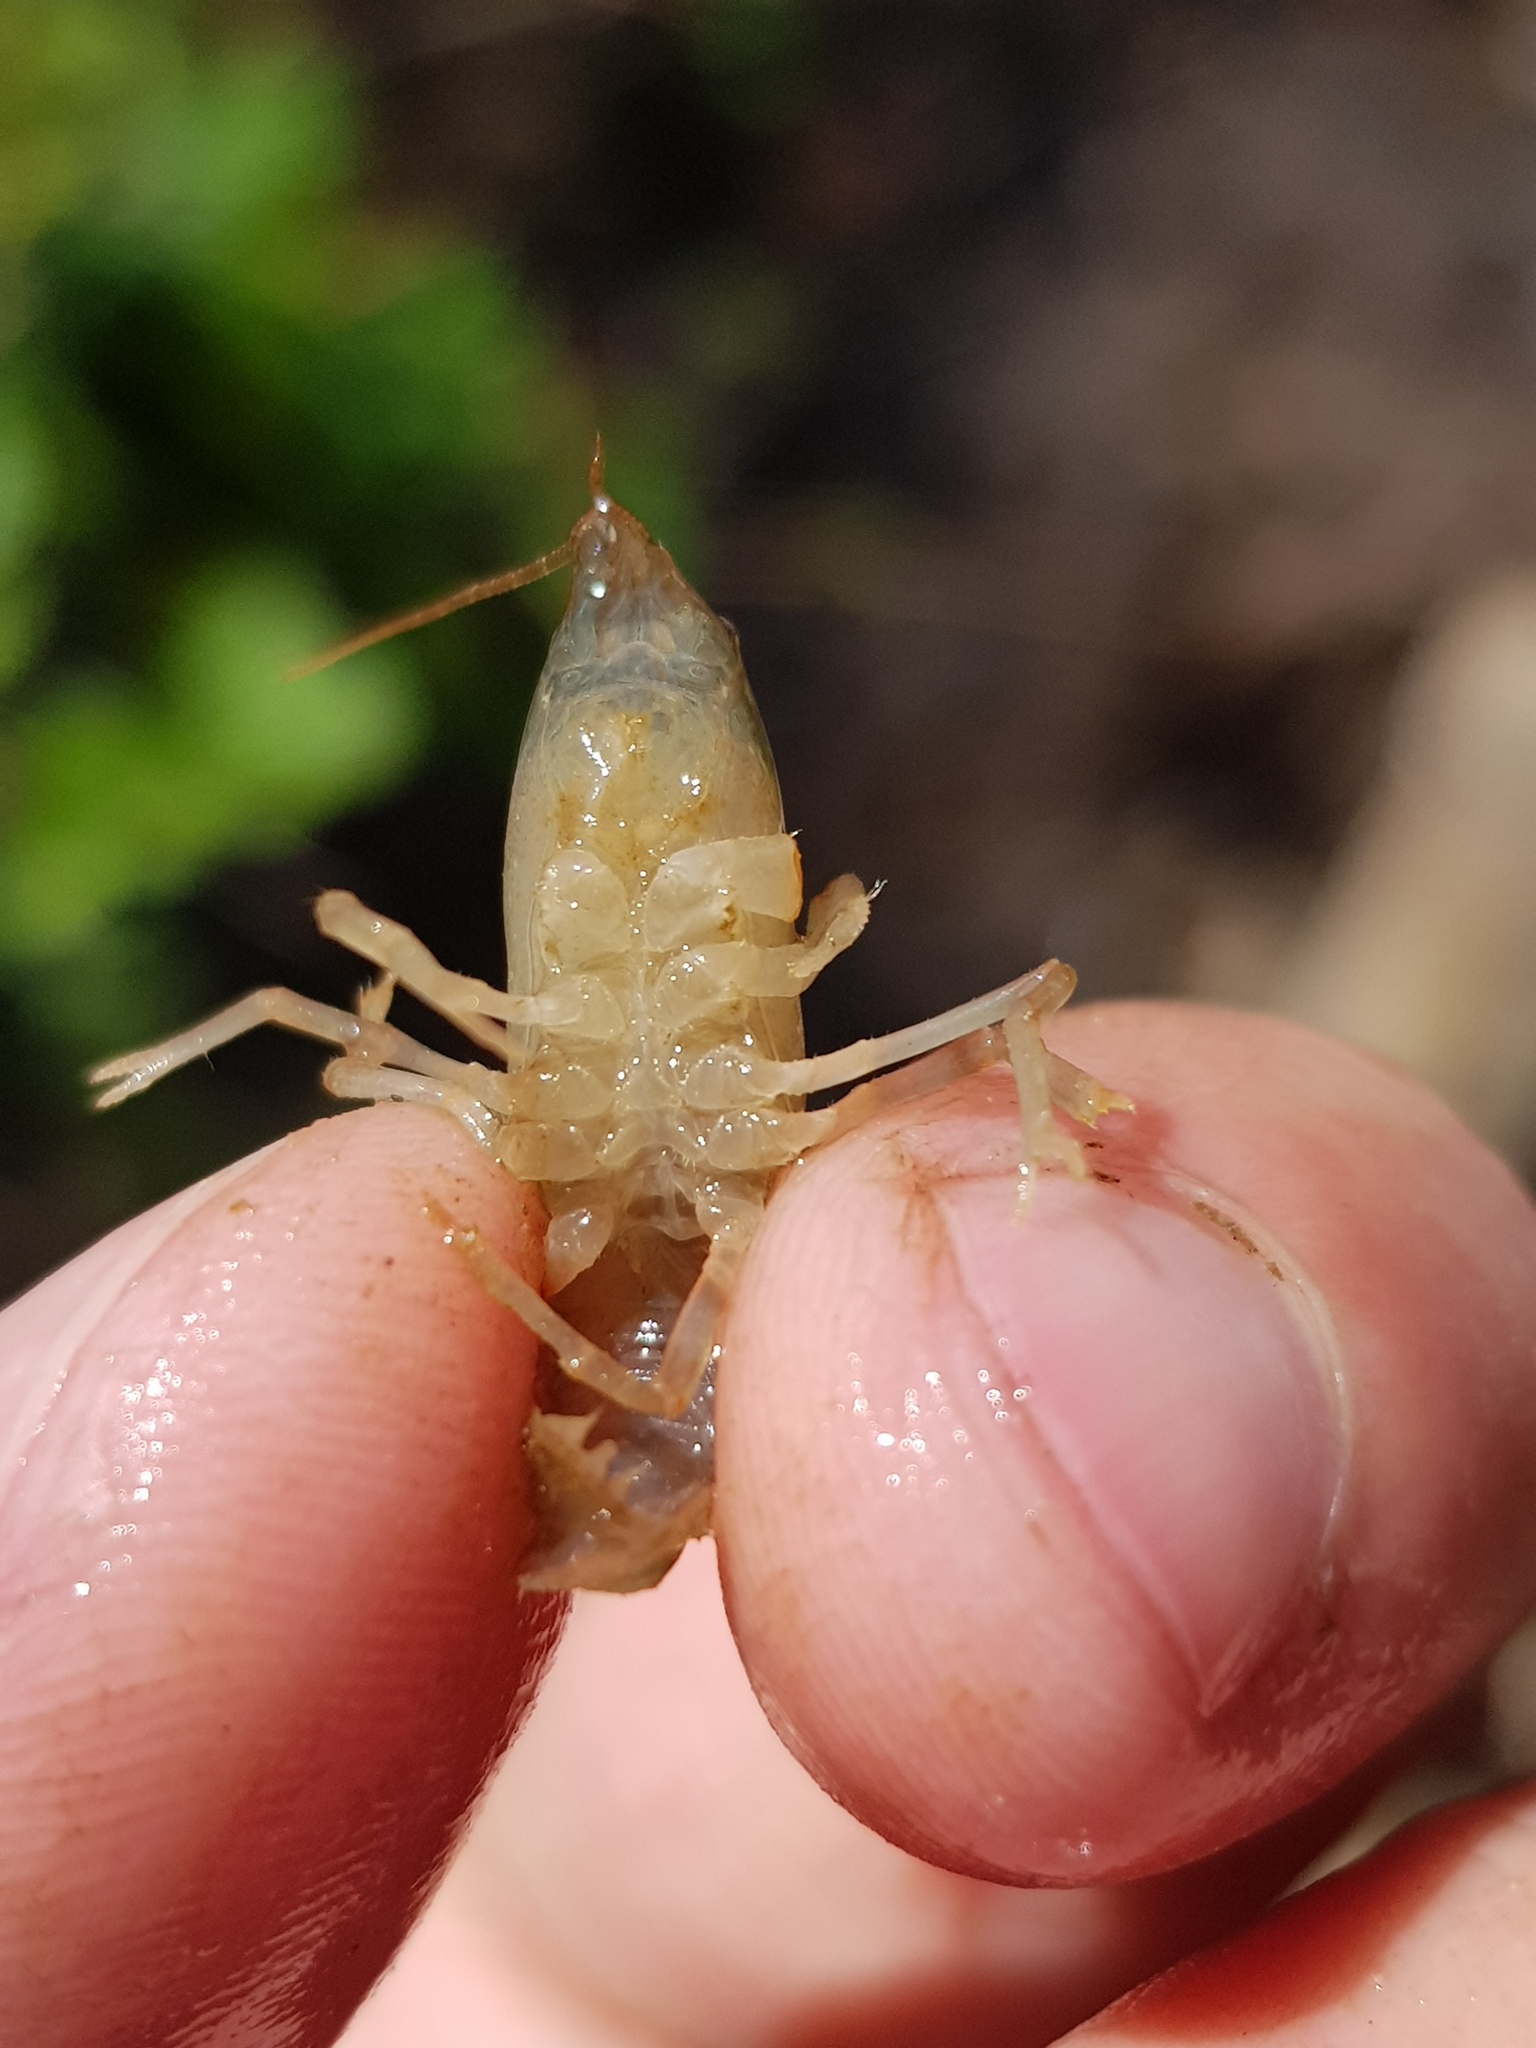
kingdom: Animalia
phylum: Arthropoda
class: Malacostraca
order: Decapoda
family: Cambaridae
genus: Cambarus
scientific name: Cambarus bartonii
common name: Appalachian brook crayfish
